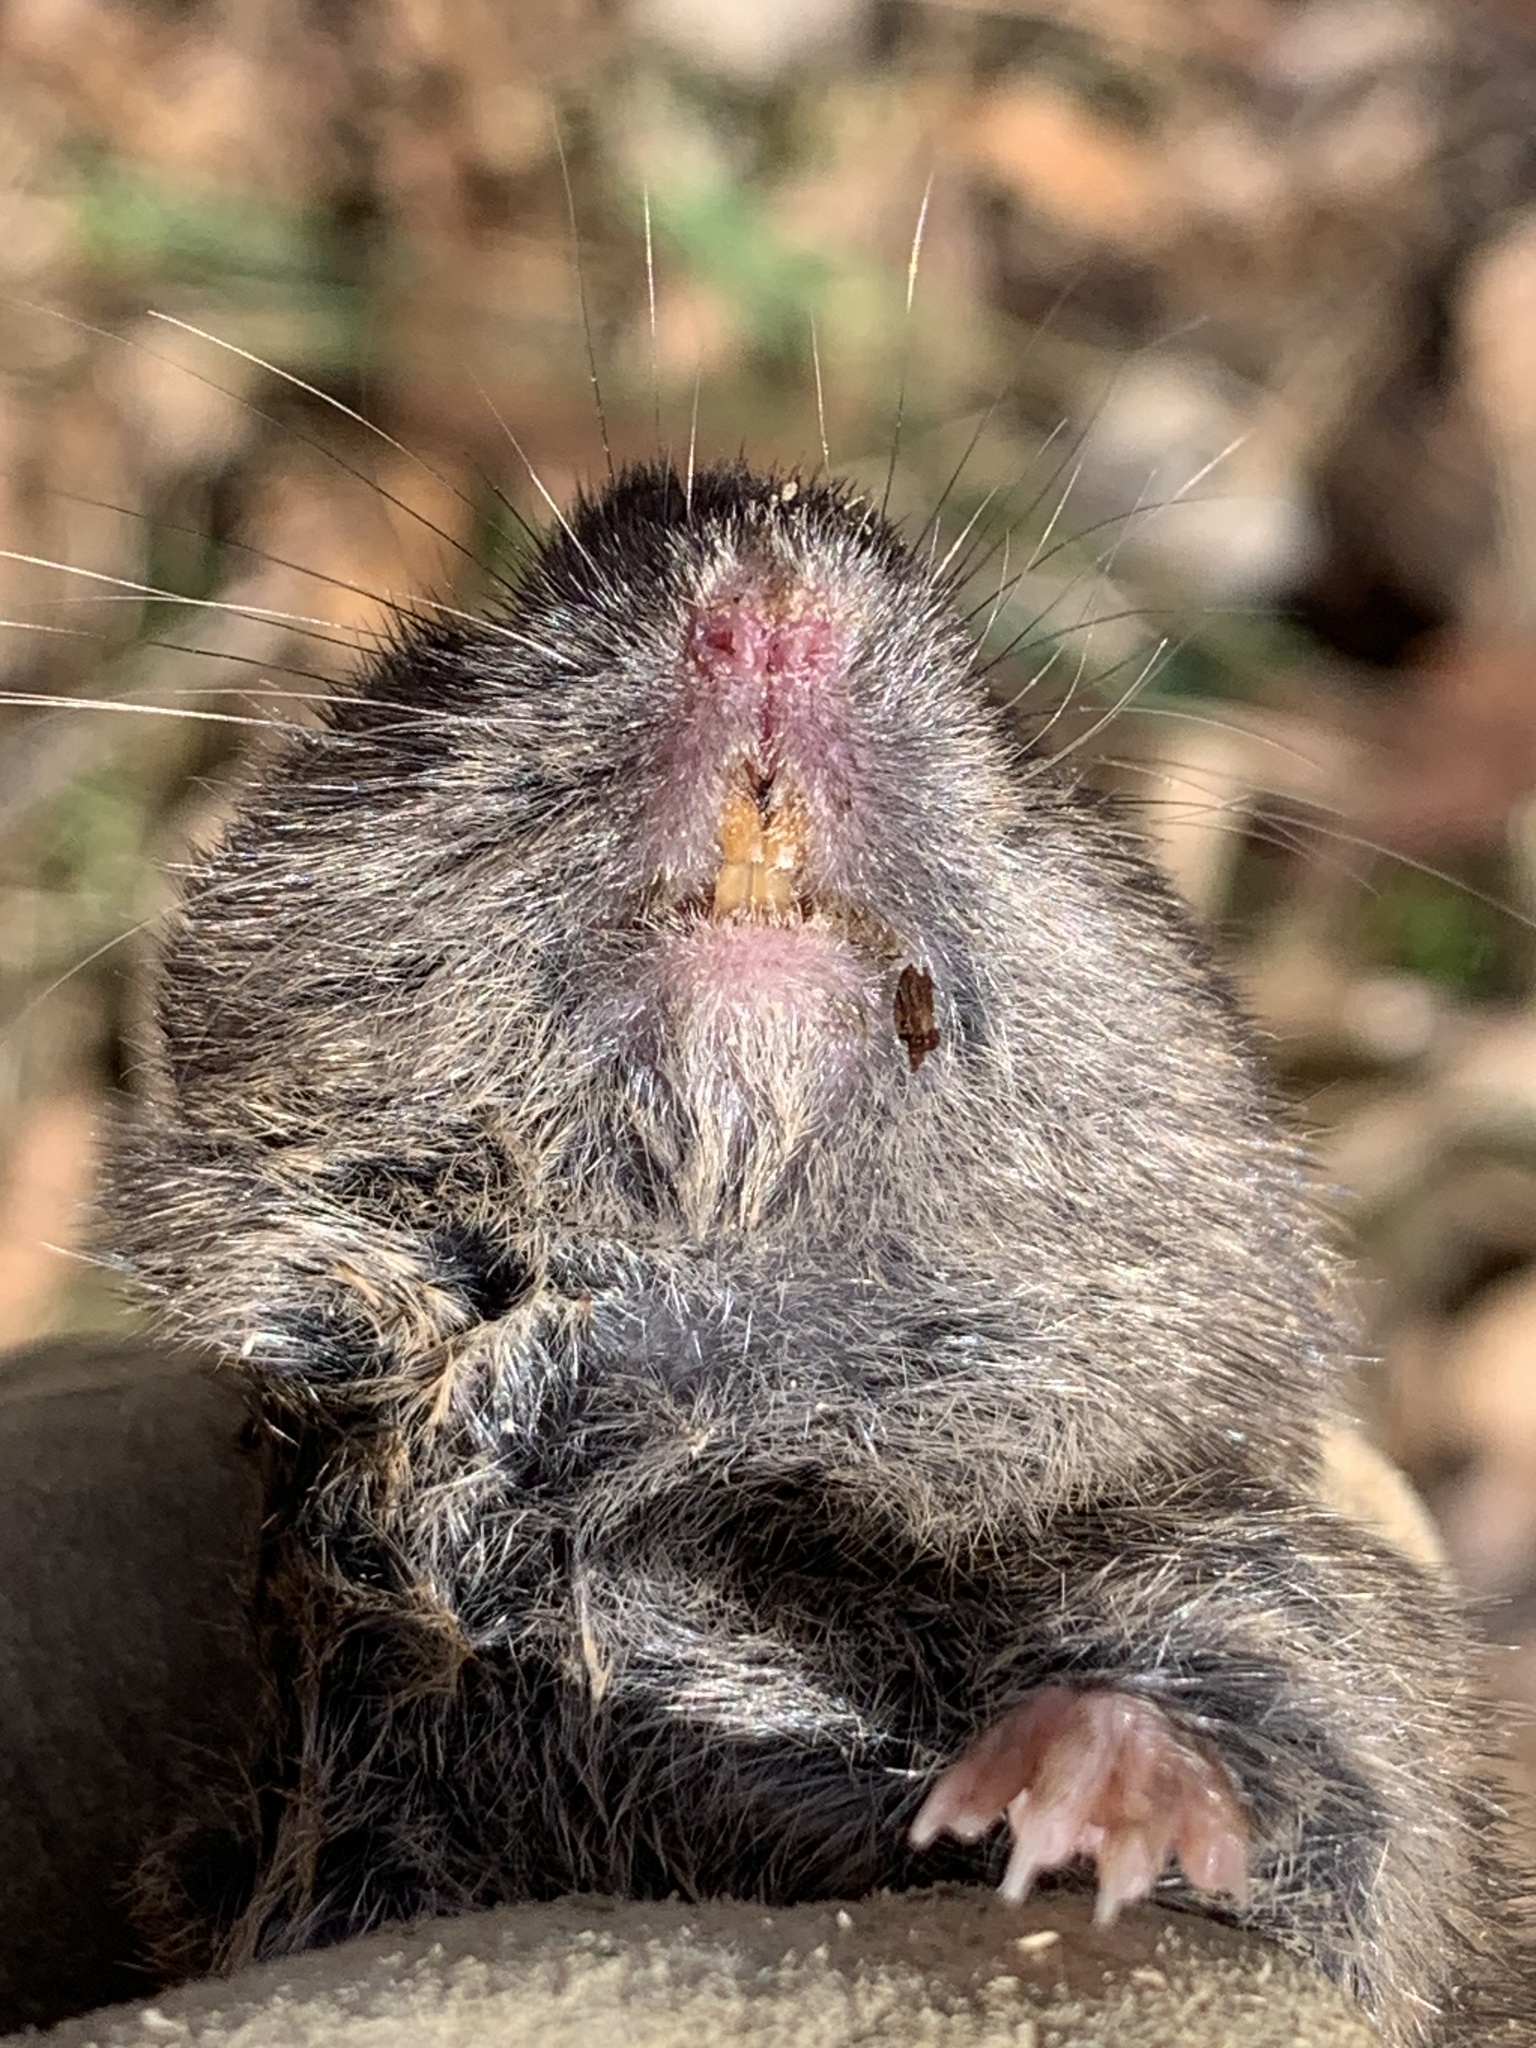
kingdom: Animalia
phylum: Chordata
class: Mammalia
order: Rodentia
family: Cricetidae
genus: Microtus
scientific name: Microtus pinetorum
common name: Woodland vole
